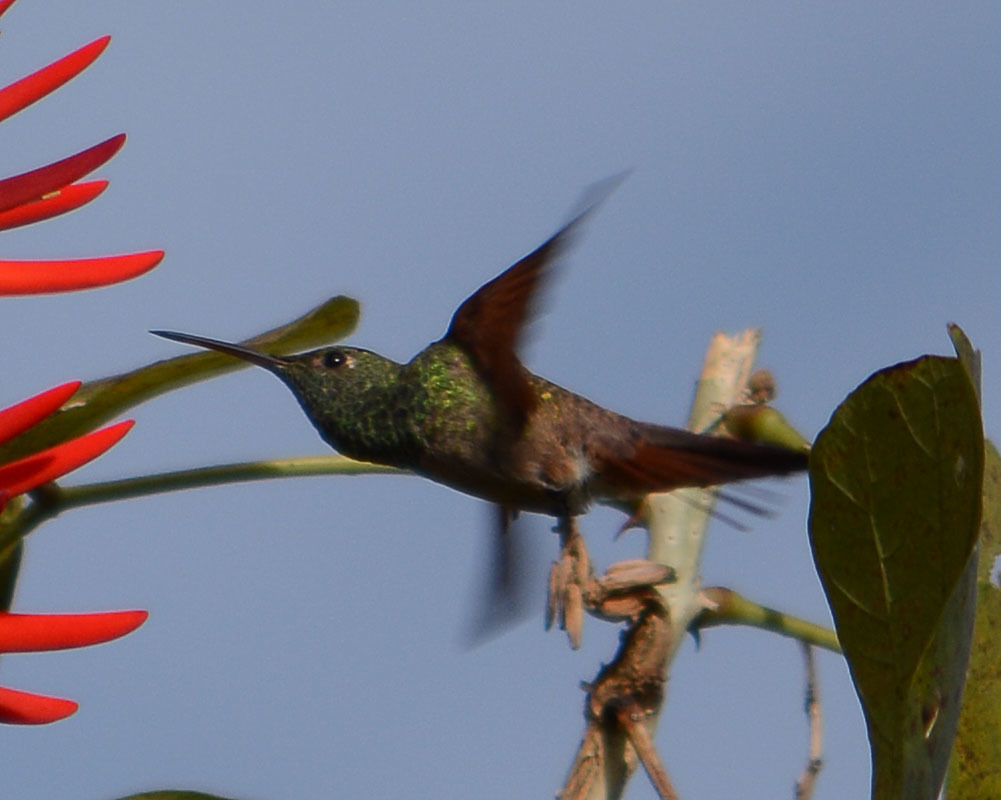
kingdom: Animalia
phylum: Chordata
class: Aves
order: Apodiformes
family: Trochilidae
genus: Saucerottia
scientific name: Saucerottia beryllina
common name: Berylline hummingbird
